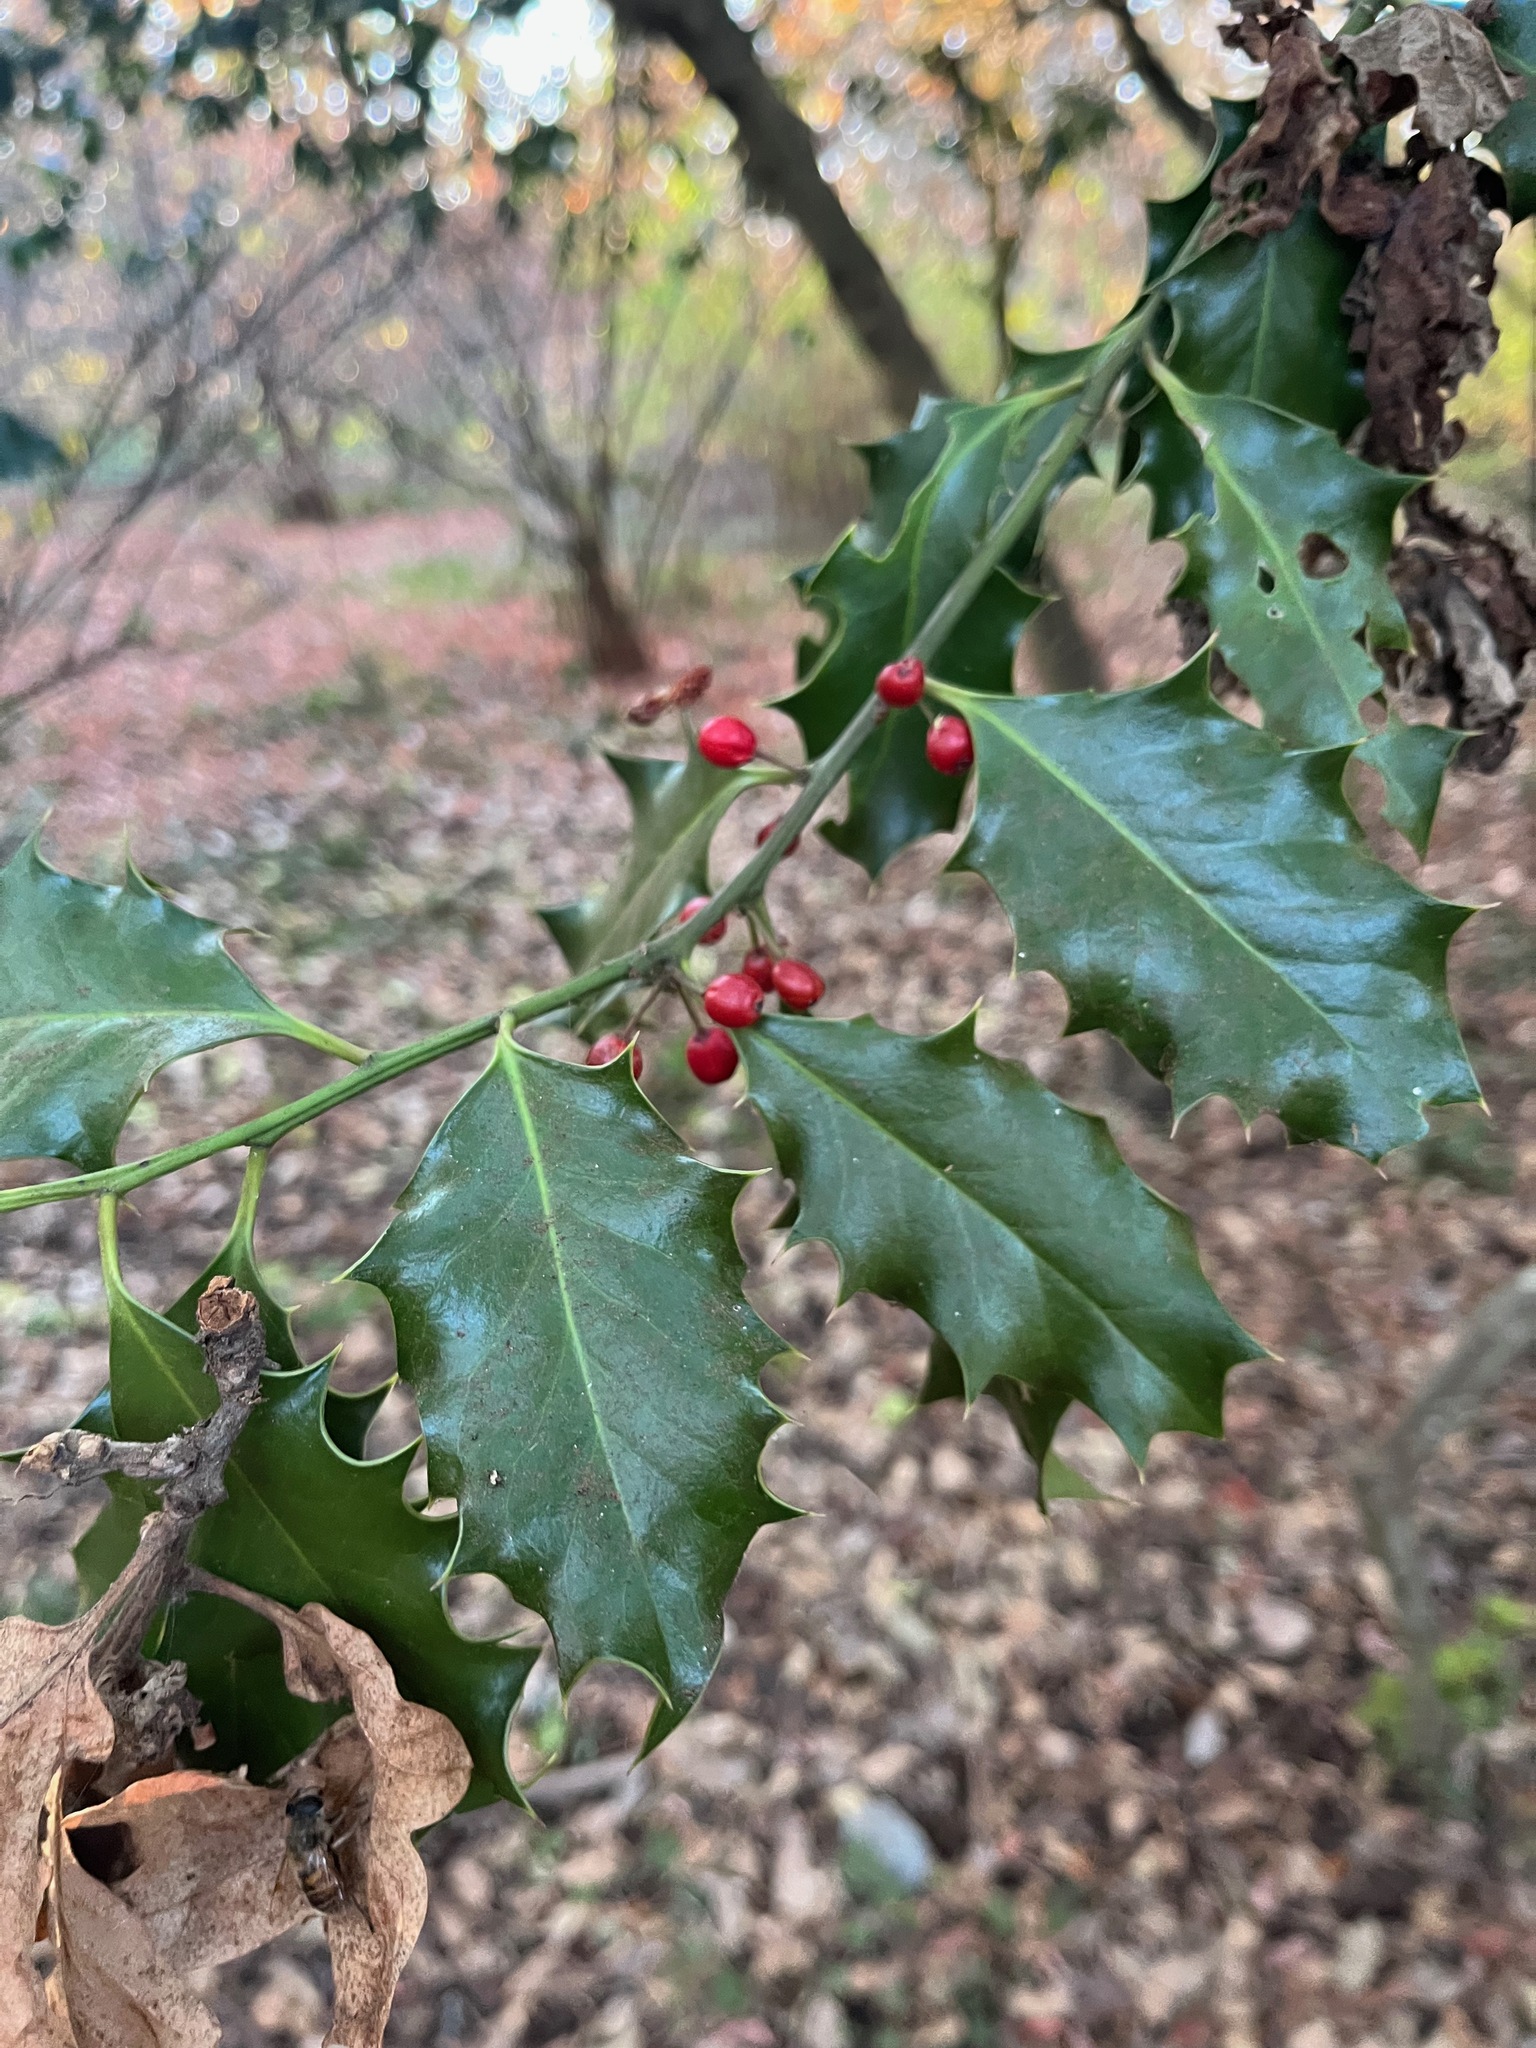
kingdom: Plantae
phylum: Tracheophyta
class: Magnoliopsida
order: Aquifoliales
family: Aquifoliaceae
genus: Ilex
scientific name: Ilex aquifolium
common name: English holly
